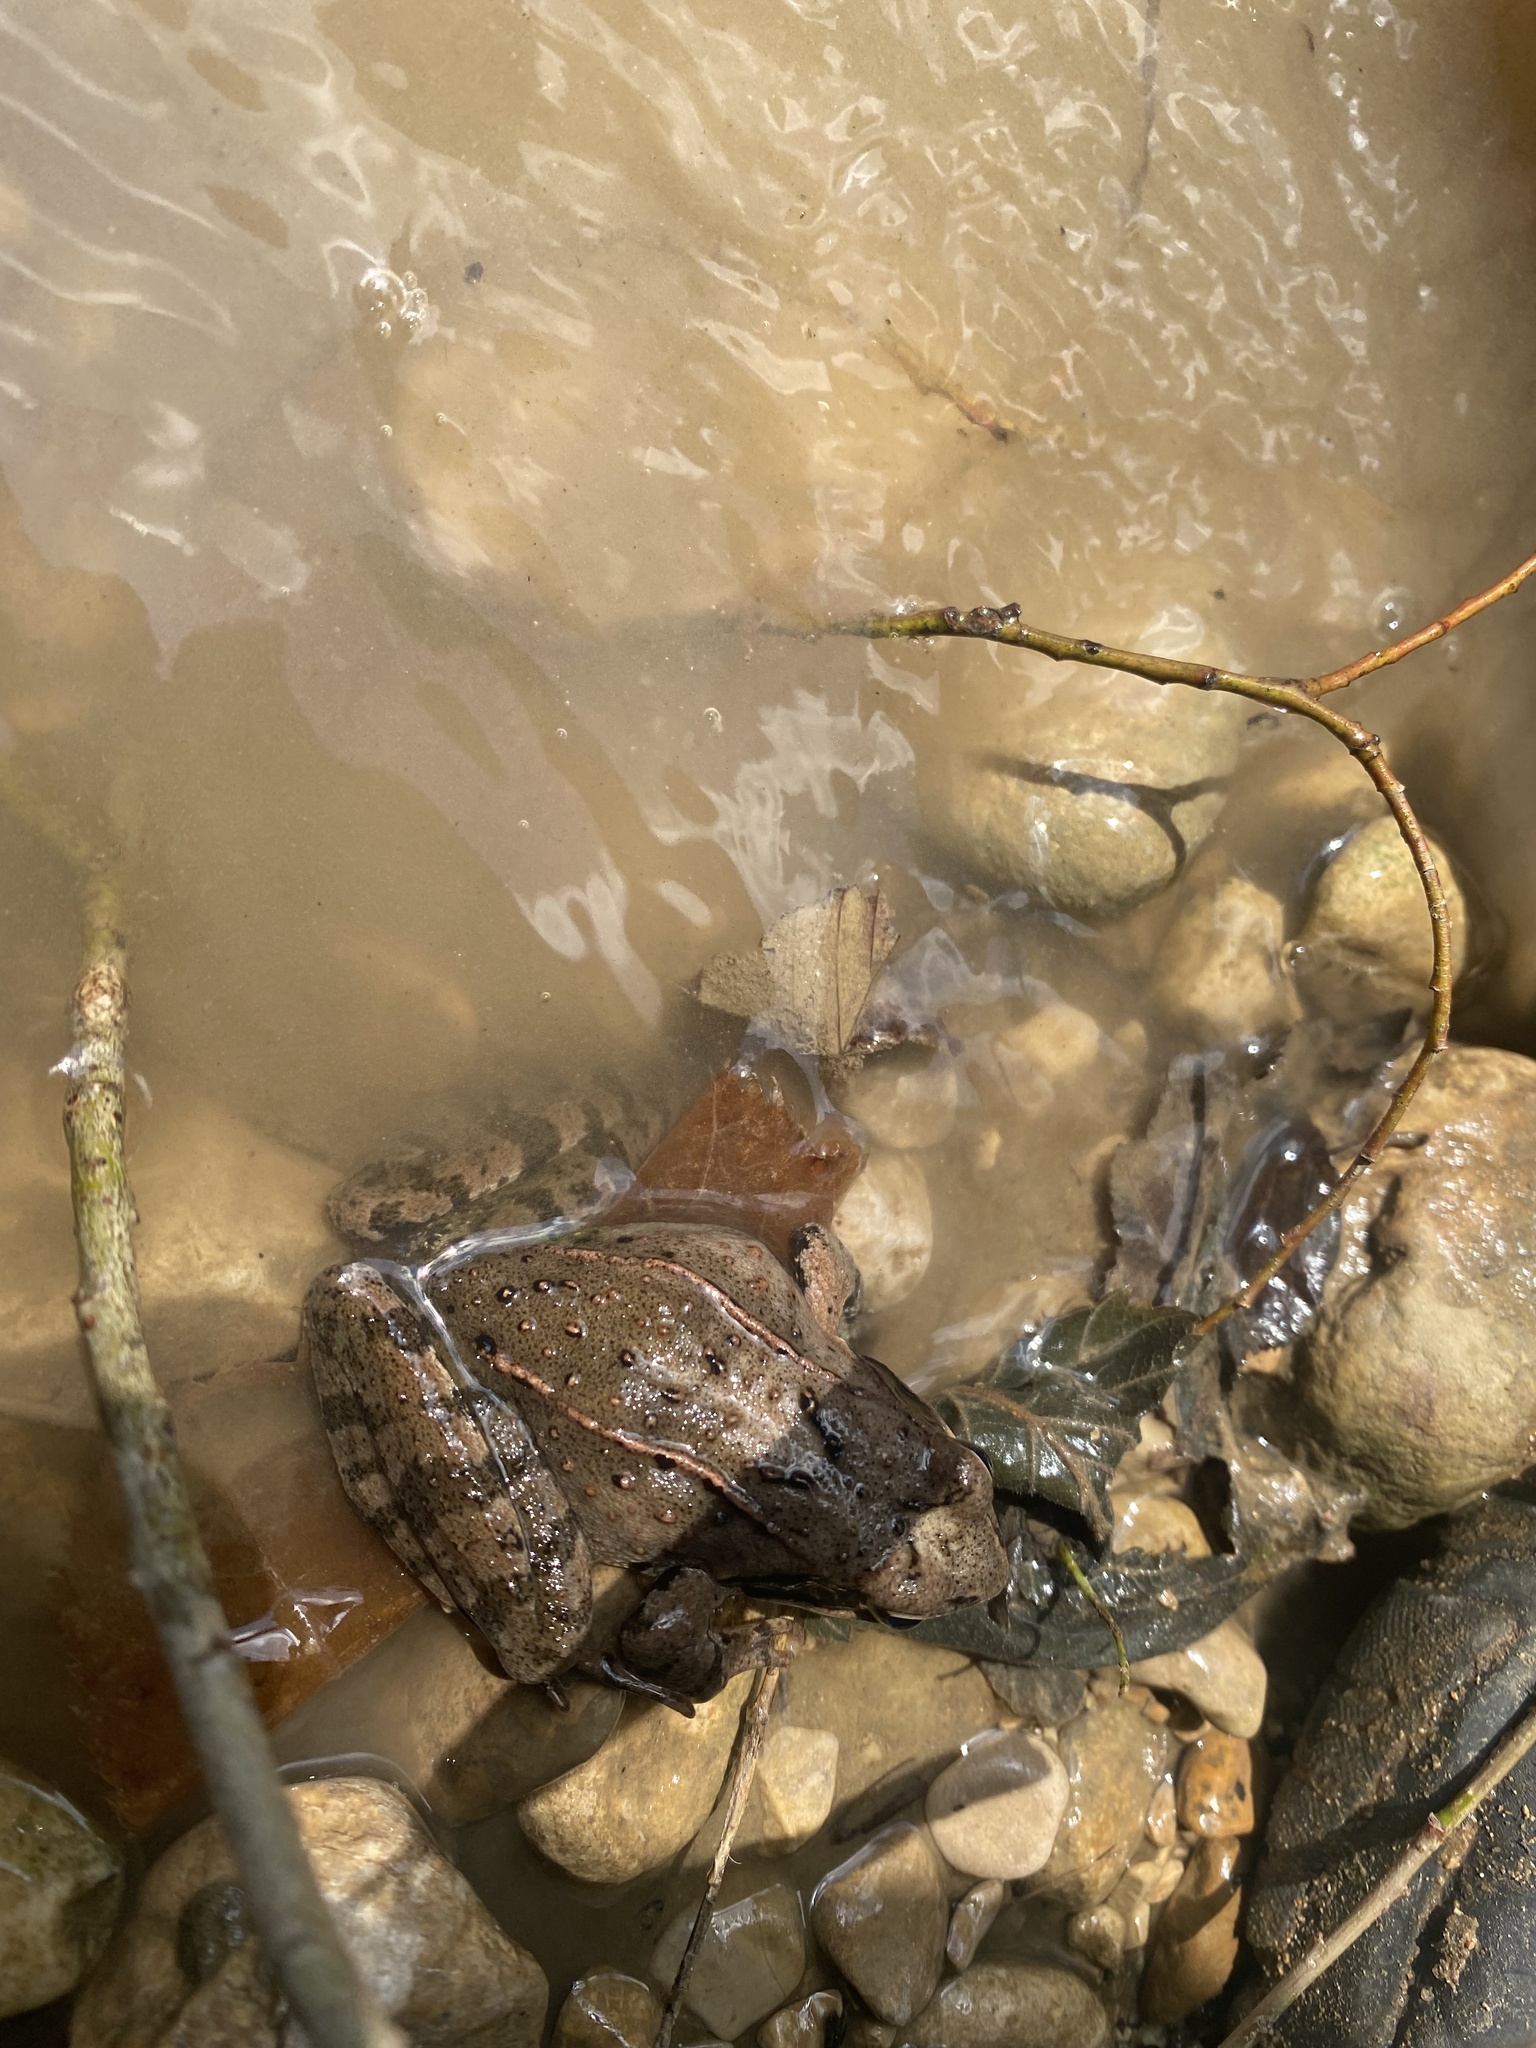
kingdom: Animalia
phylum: Chordata
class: Amphibia
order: Anura
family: Ranidae
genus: Rana
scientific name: Rana macrocnemis
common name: Banded frog
